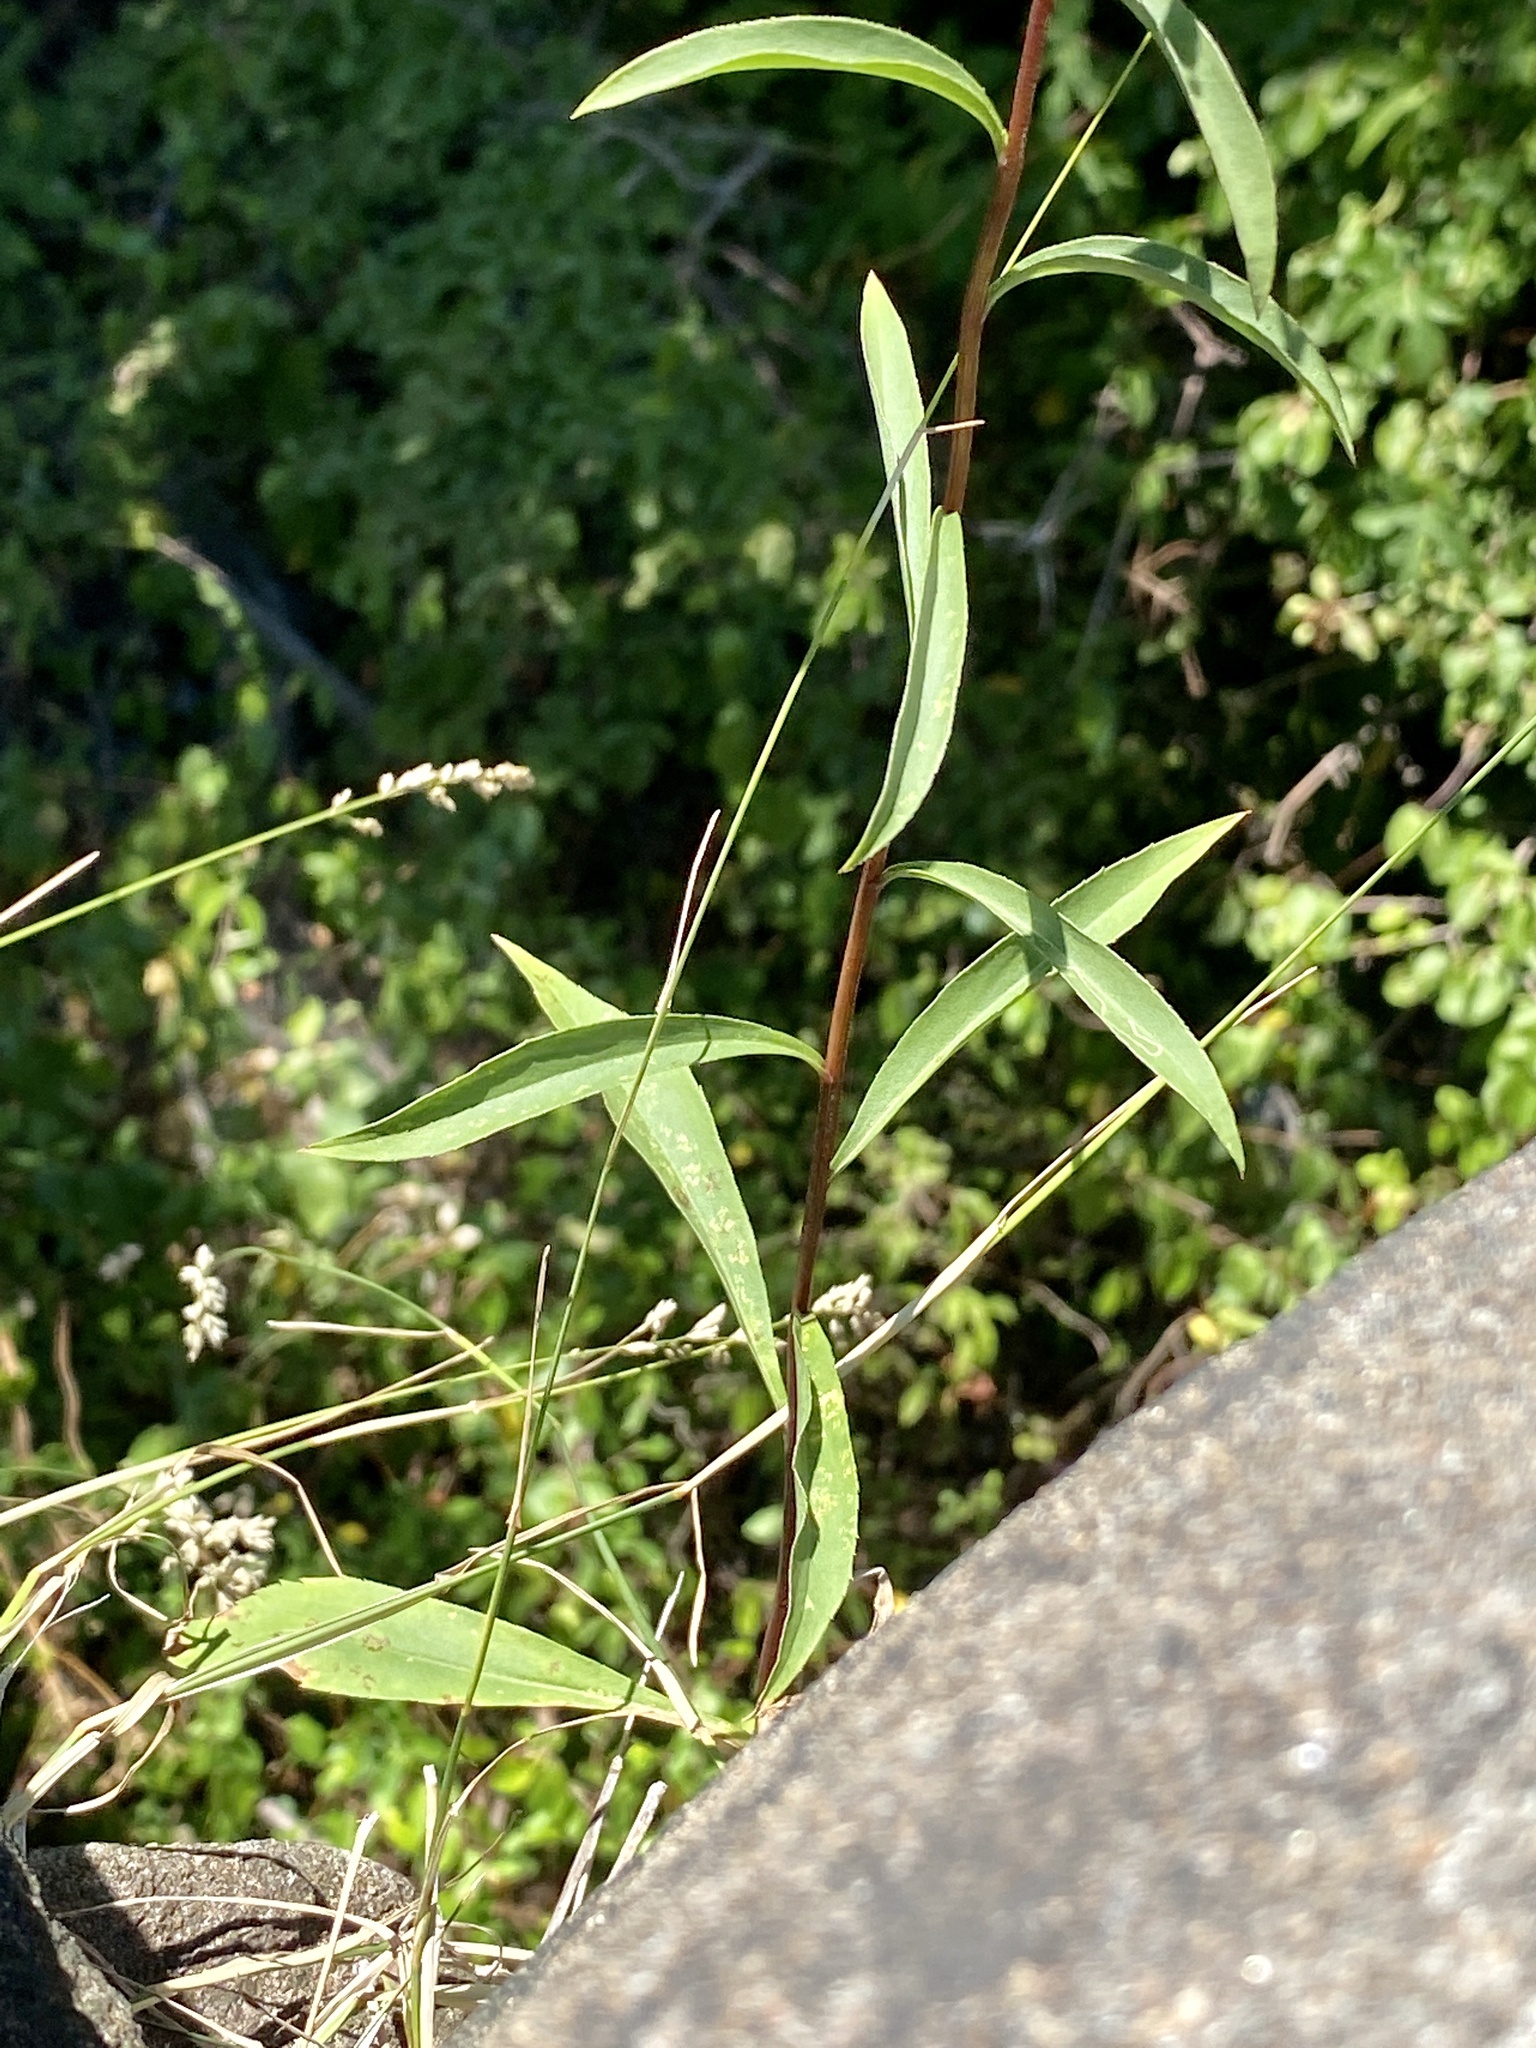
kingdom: Plantae
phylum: Tracheophyta
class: Magnoliopsida
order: Asterales
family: Asteraceae
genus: Solidago
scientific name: Solidago juncea
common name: Early goldenrod
